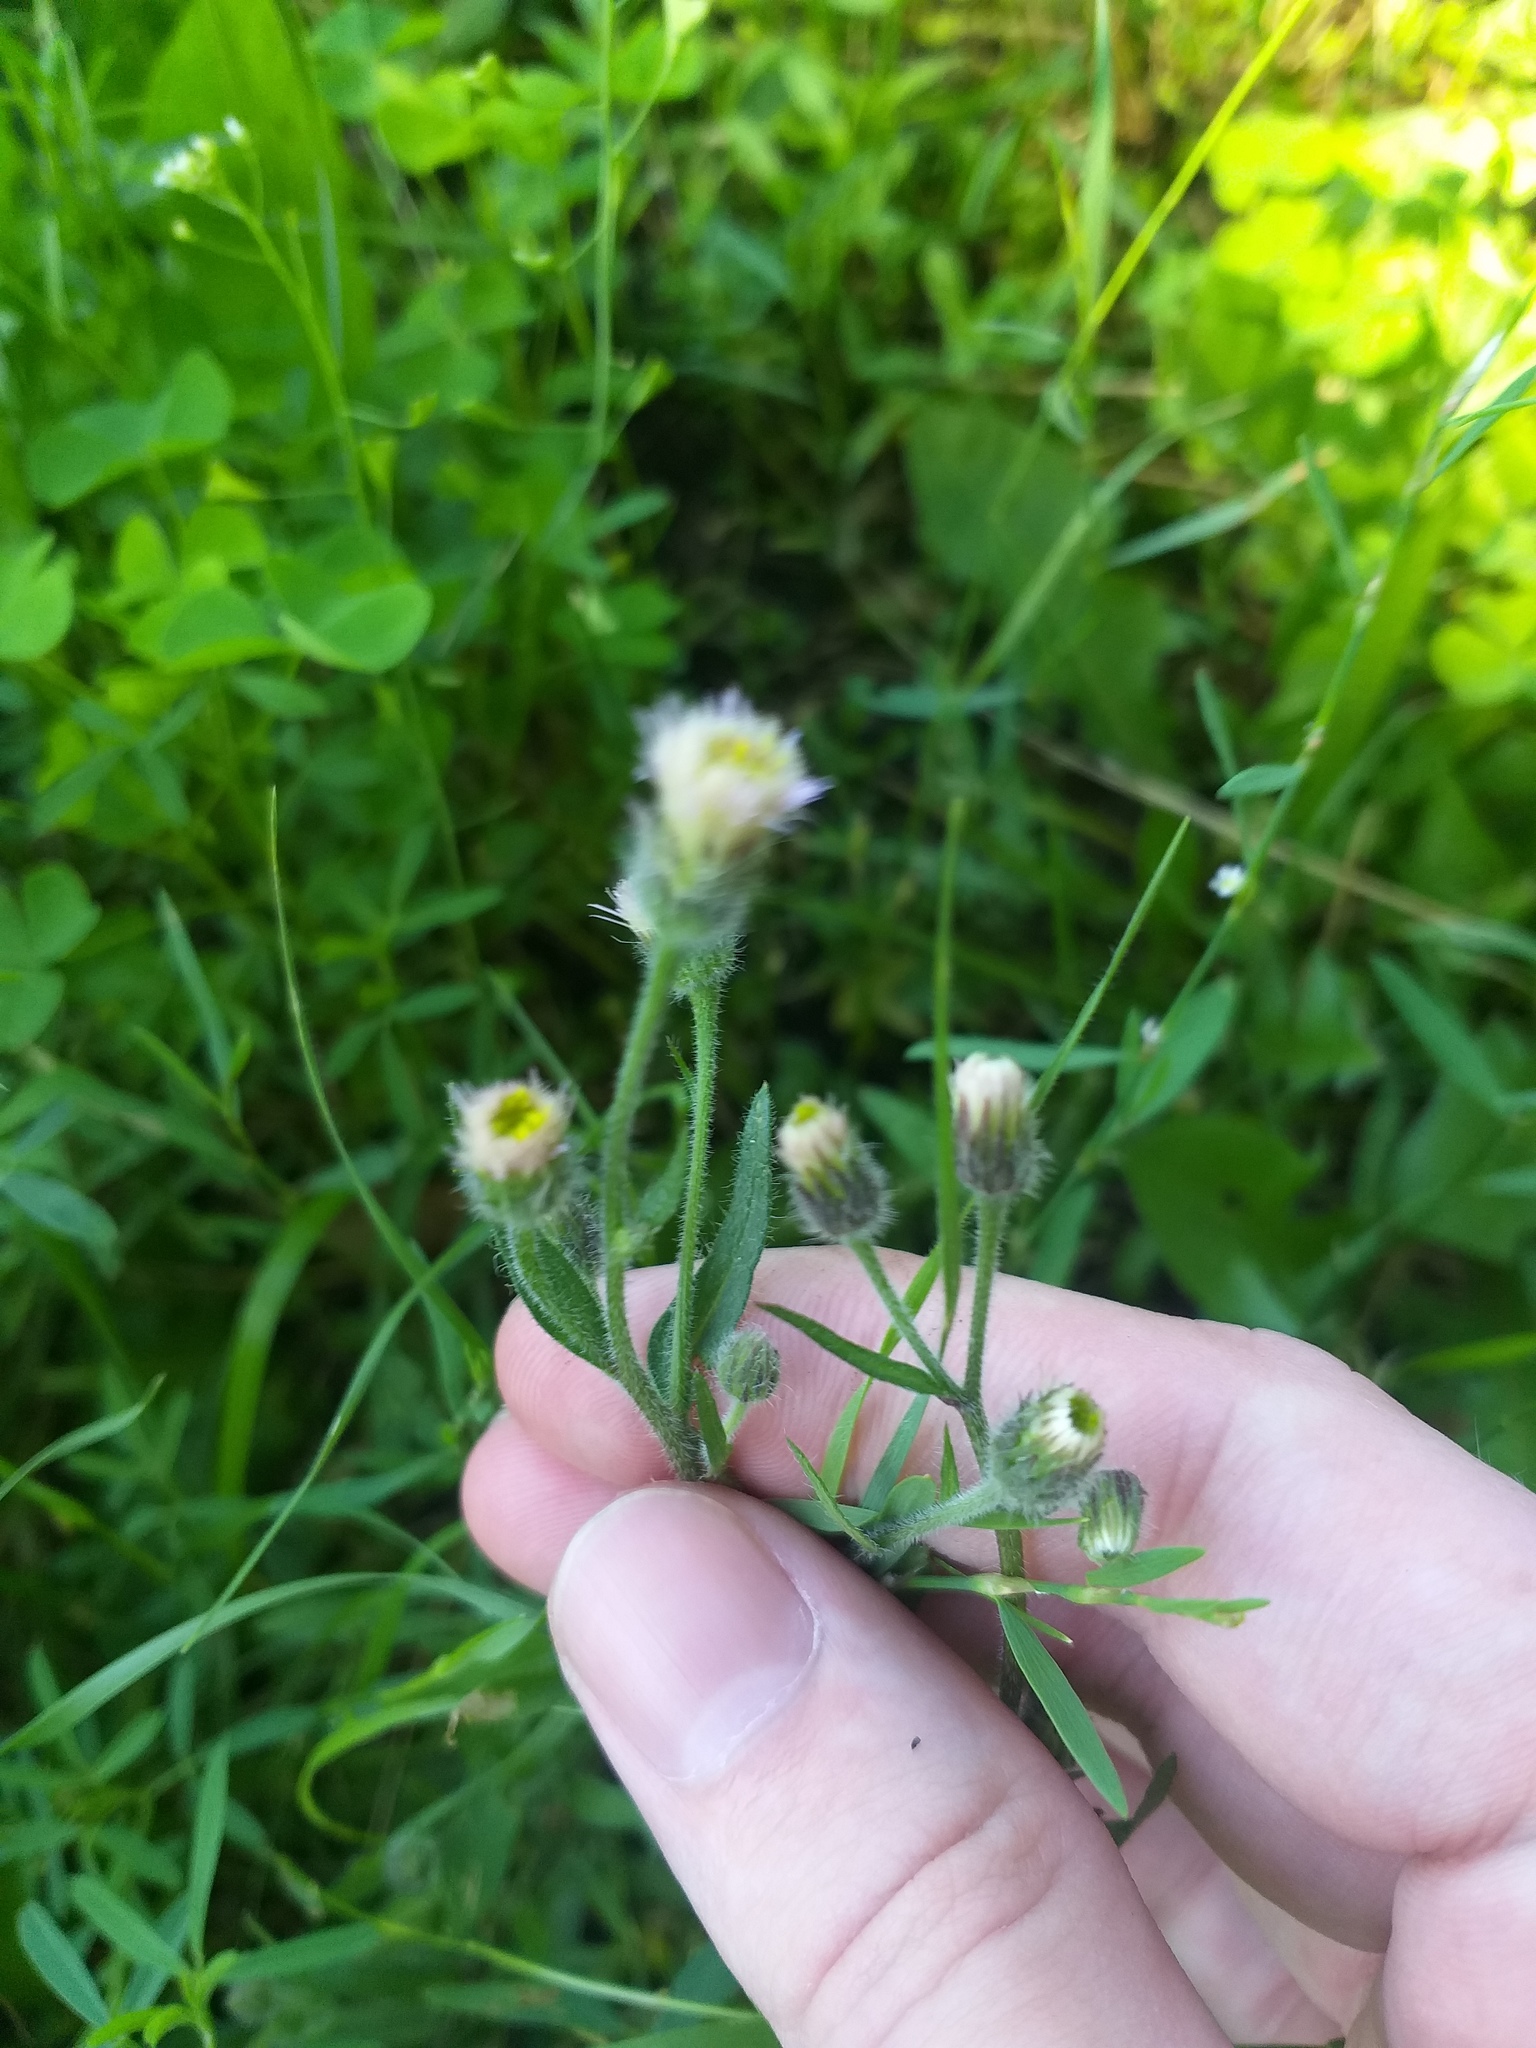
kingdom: Plantae
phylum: Tracheophyta
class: Magnoliopsida
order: Asterales
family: Asteraceae
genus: Erigeron
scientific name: Erigeron acris
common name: Blue fleabane
